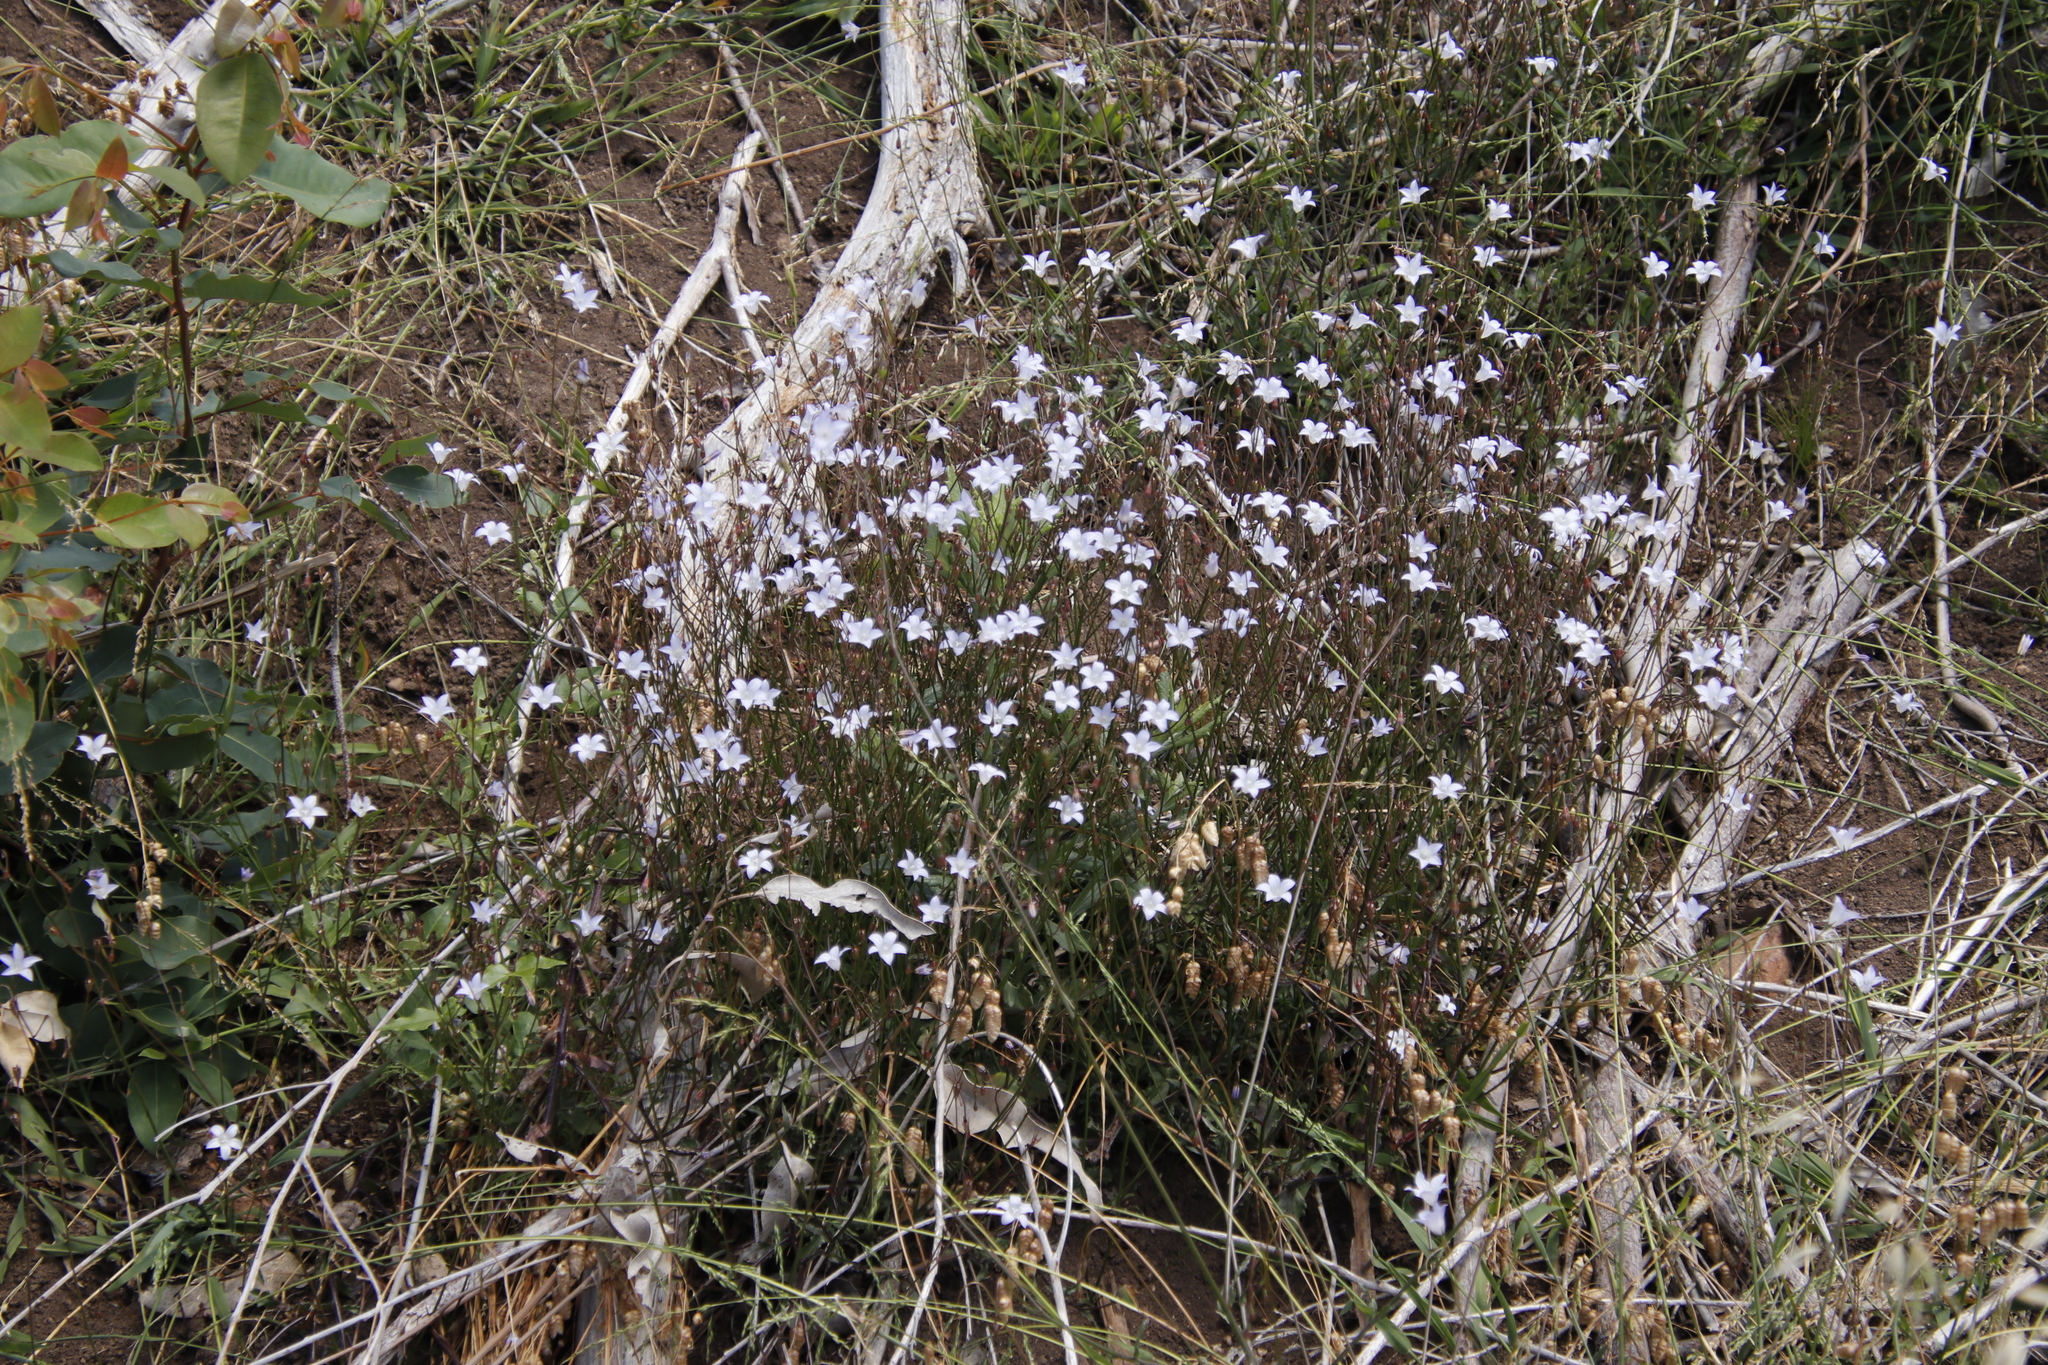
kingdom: Plantae
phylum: Tracheophyta
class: Magnoliopsida
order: Asterales
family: Campanulaceae
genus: Wahlenbergia
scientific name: Wahlenbergia obovata
